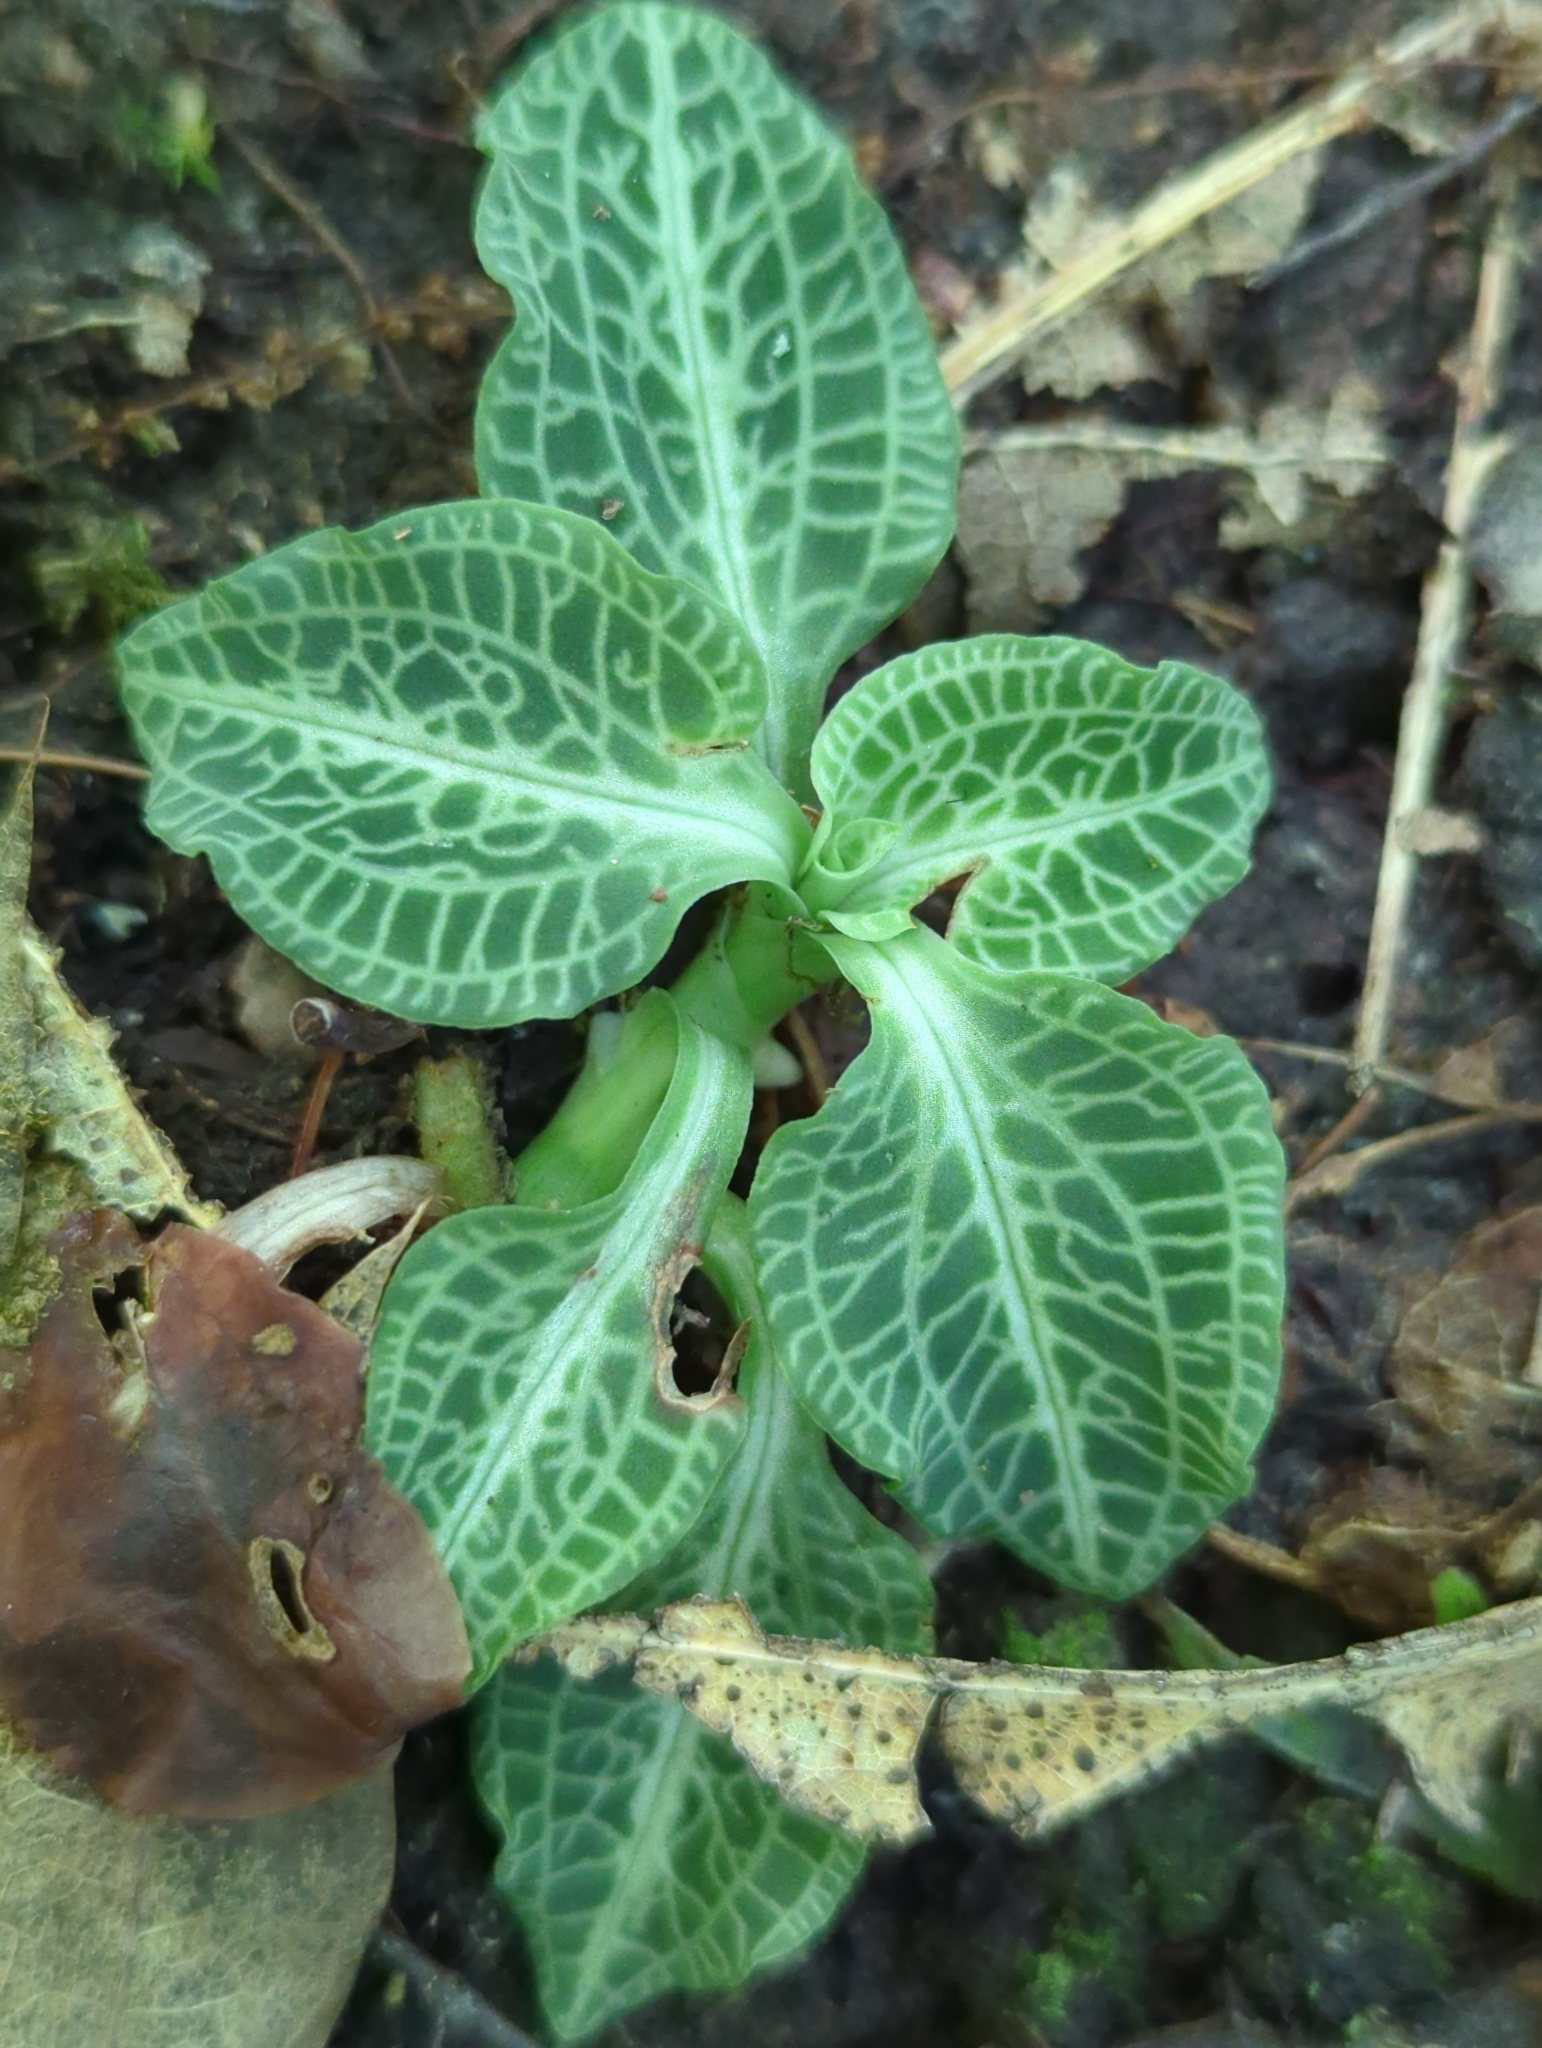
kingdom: Plantae
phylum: Tracheophyta
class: Liliopsida
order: Asparagales
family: Orchidaceae
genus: Goodyera
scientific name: Goodyera pubescens
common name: Downy rattlesnake-plantain
